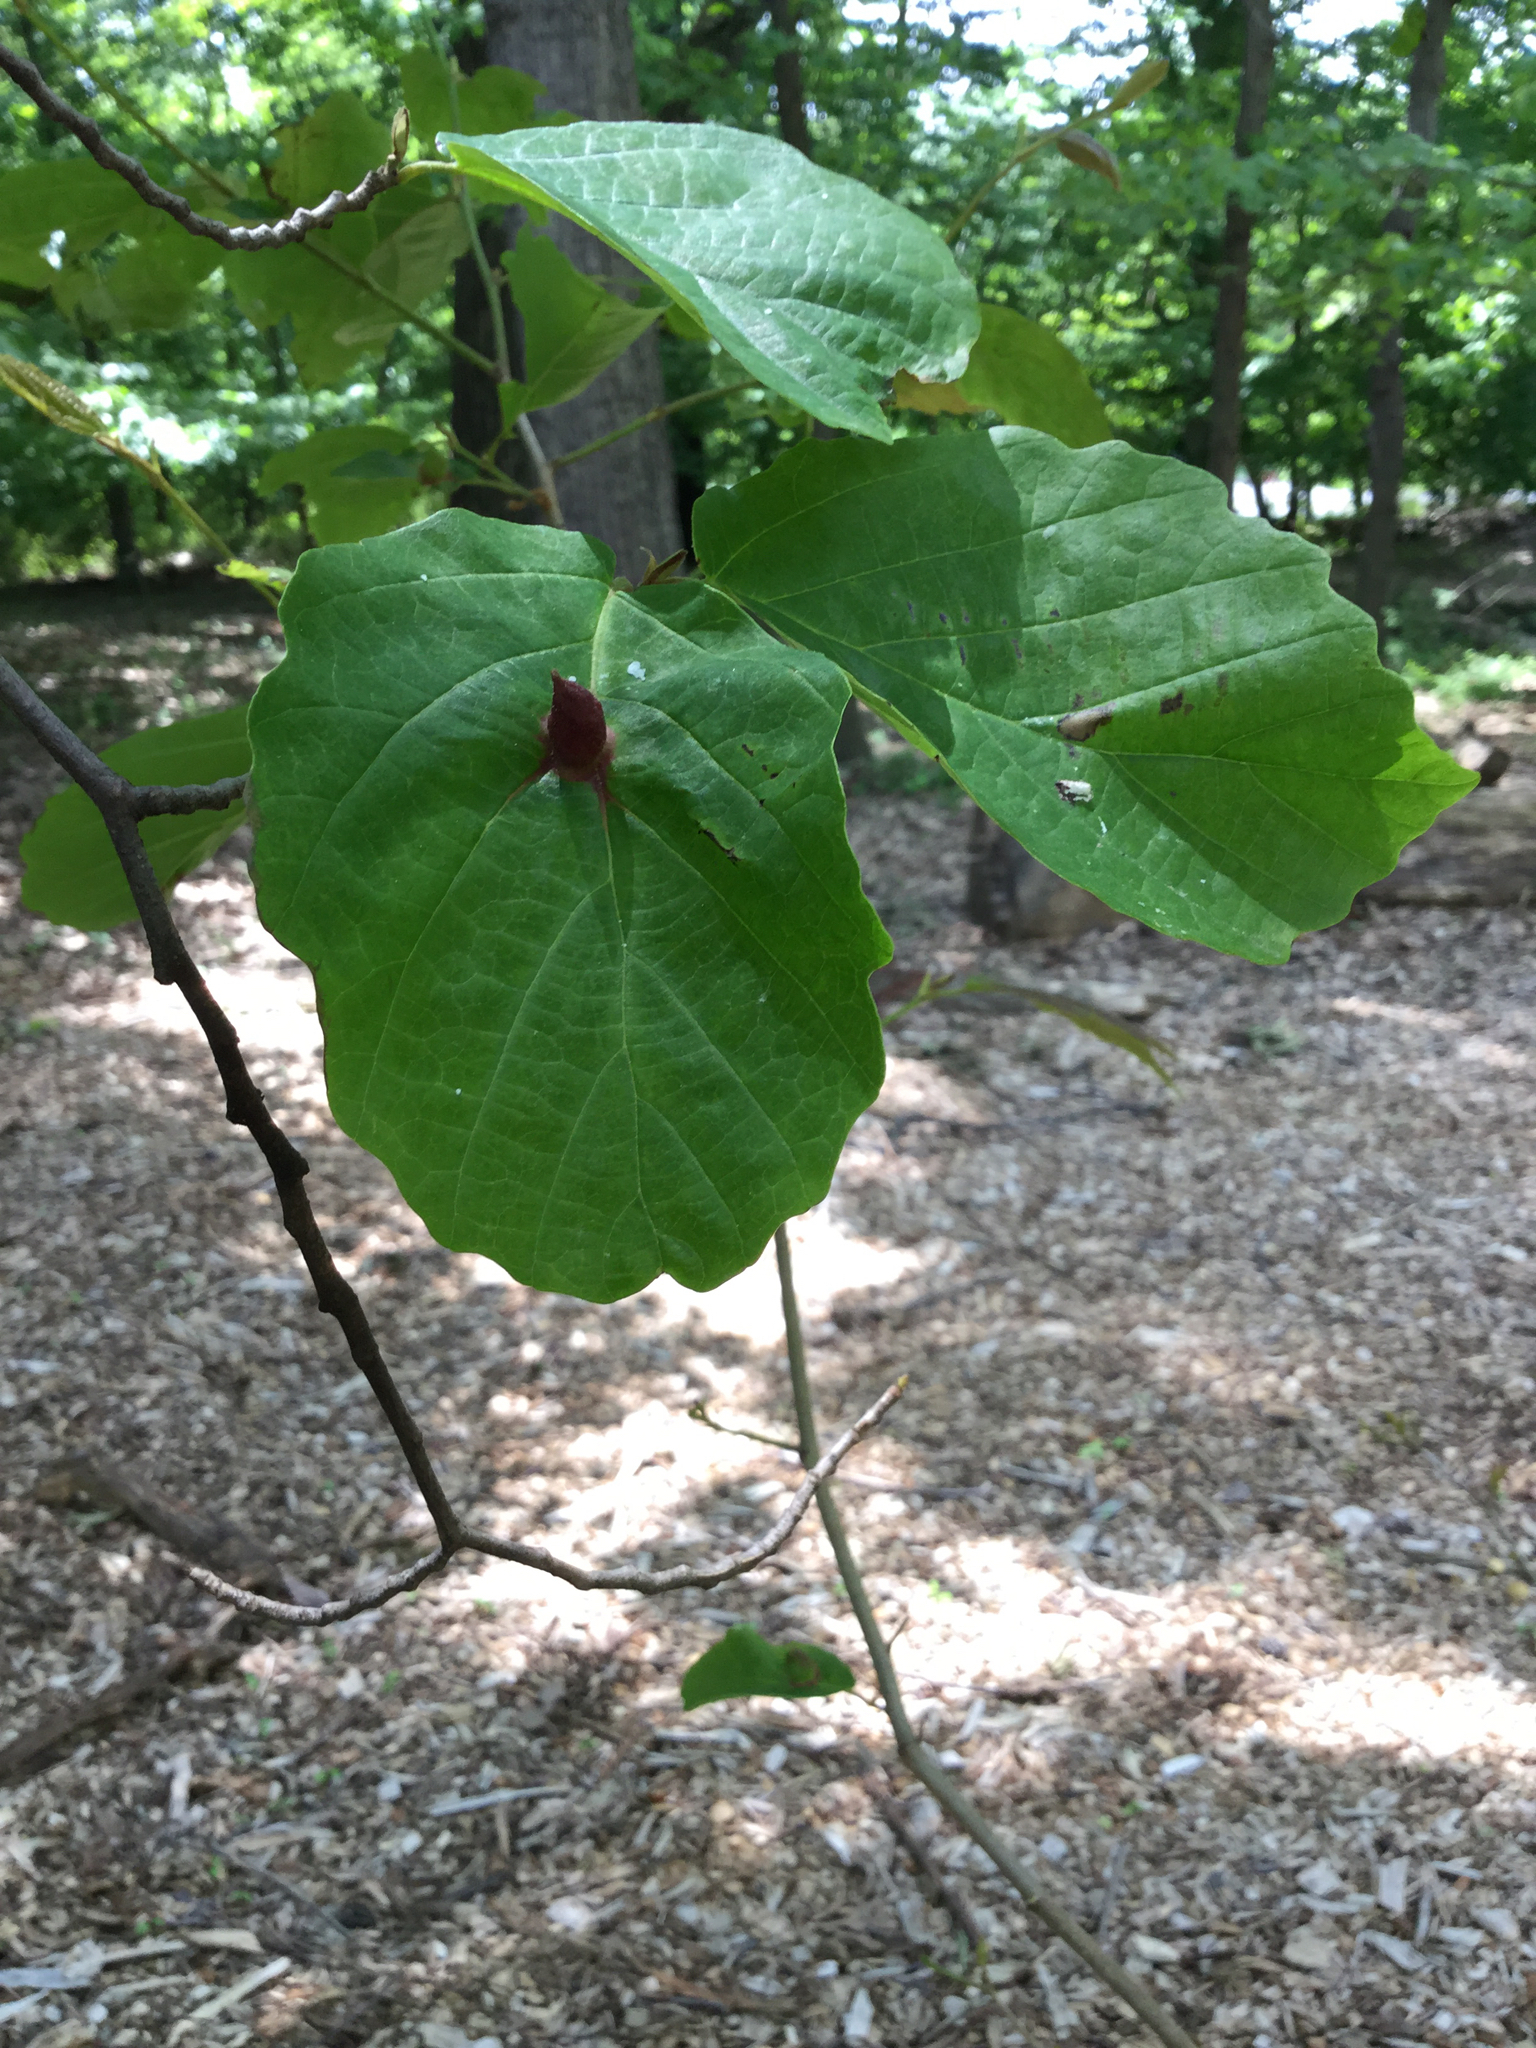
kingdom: Animalia
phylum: Arthropoda
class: Insecta
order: Hemiptera
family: Aphididae
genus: Hormaphis
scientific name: Hormaphis hamamelidis
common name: Witch-hazel cone gall aphid
